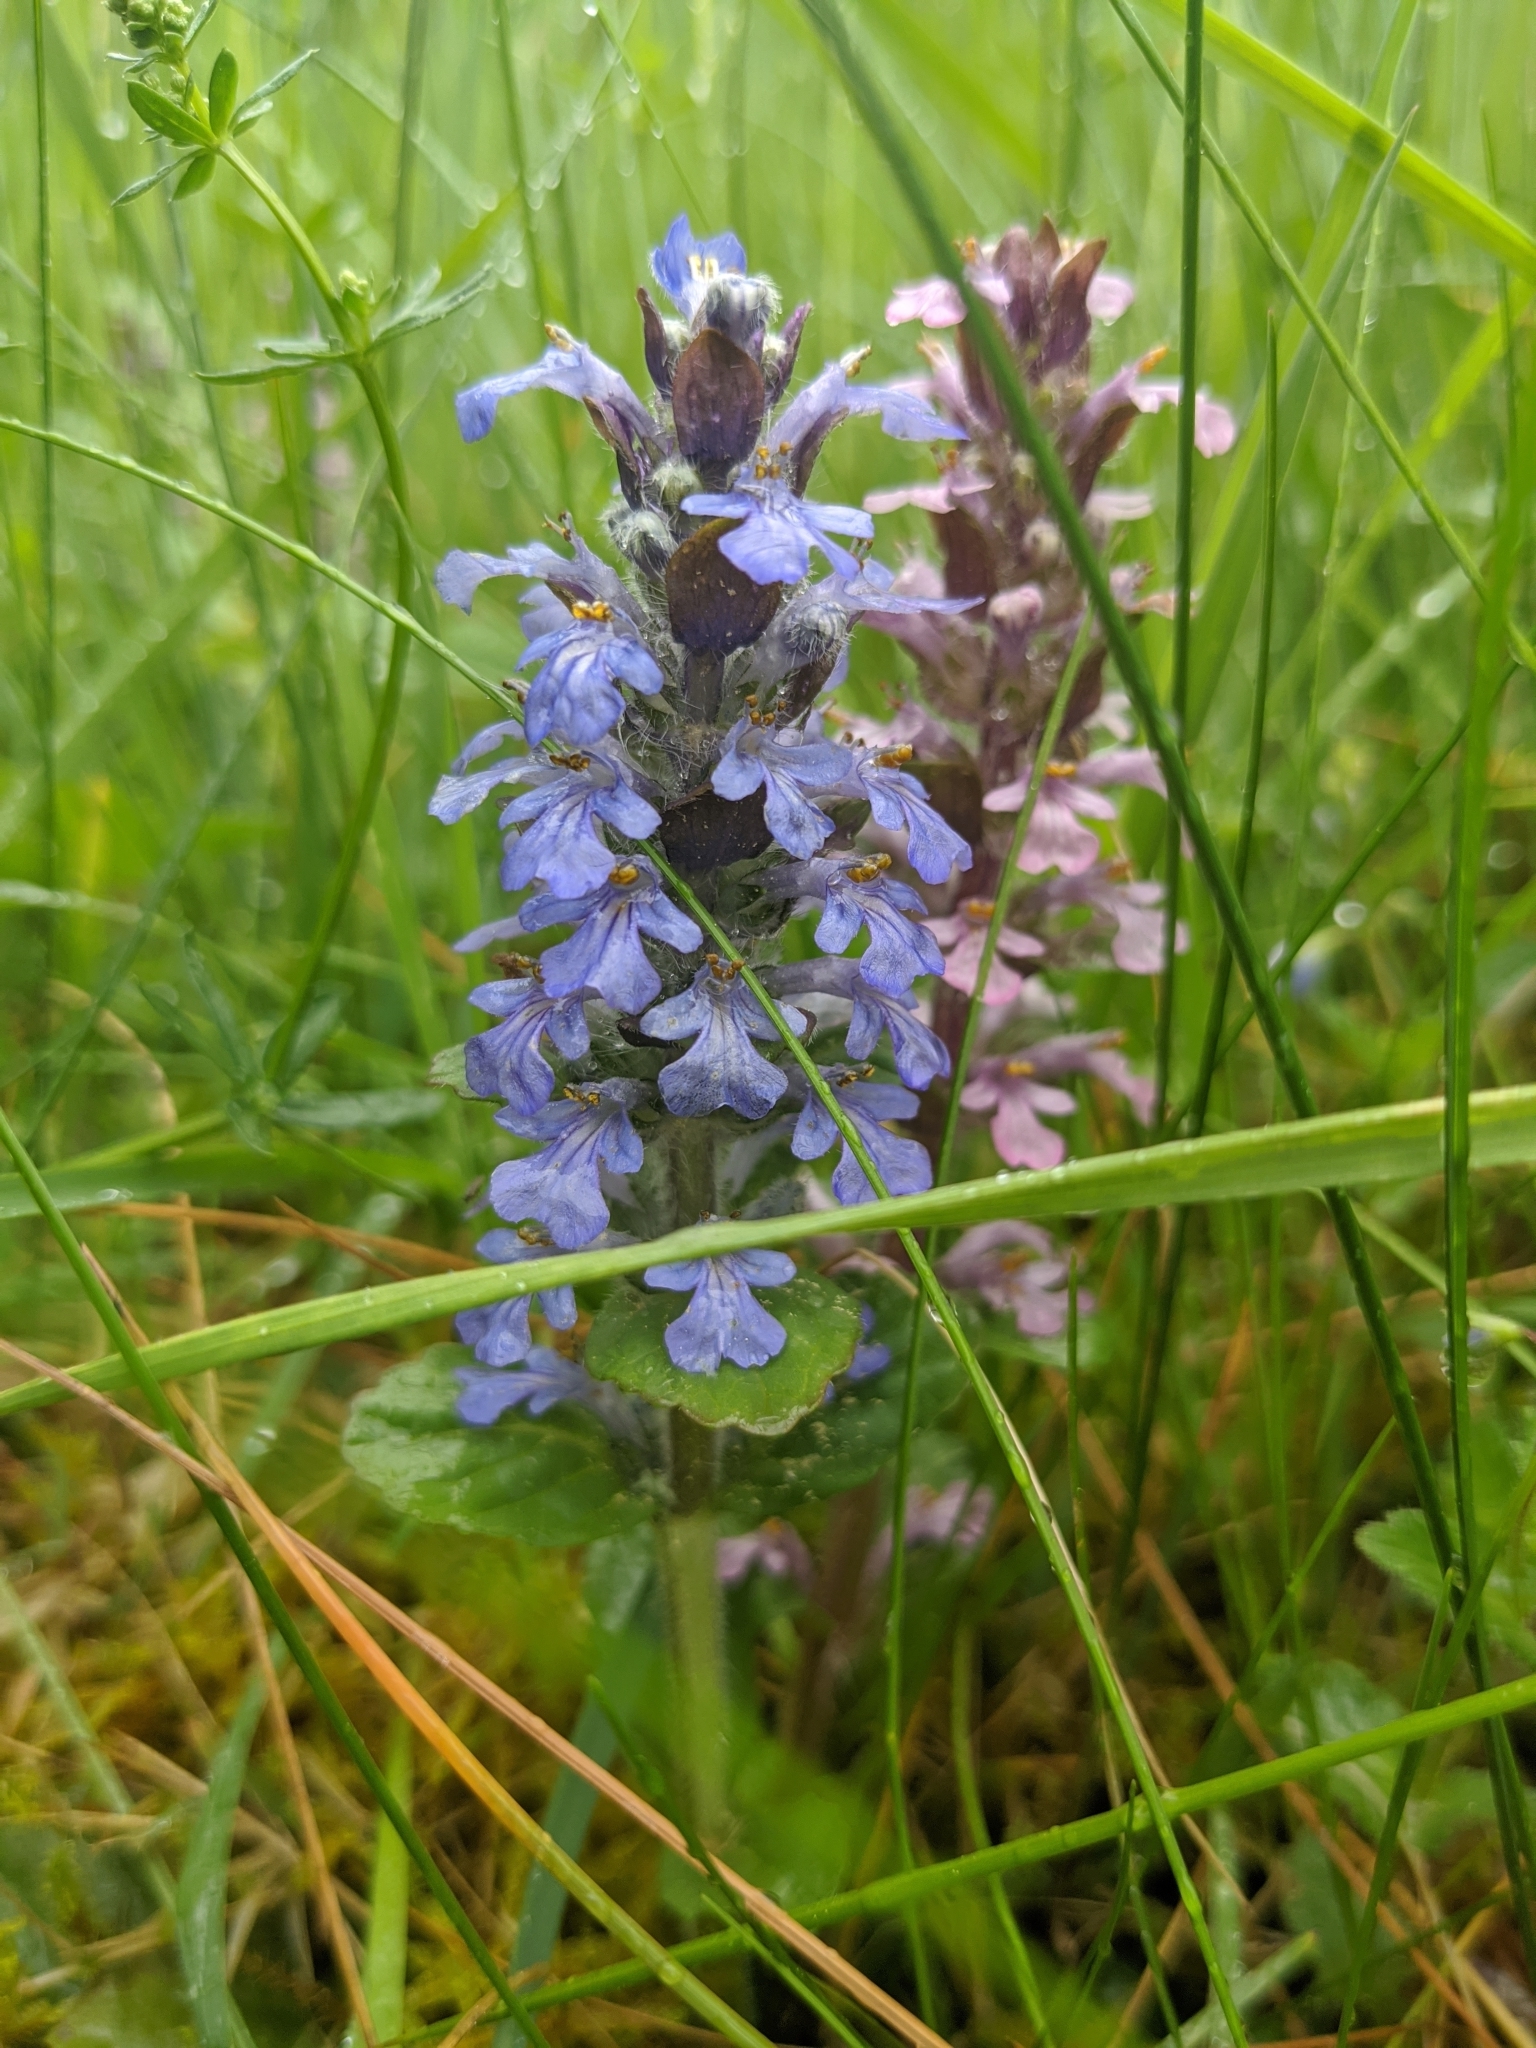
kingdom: Plantae
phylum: Tracheophyta
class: Magnoliopsida
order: Lamiales
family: Lamiaceae
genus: Ajuga
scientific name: Ajuga reptans
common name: Bugle
